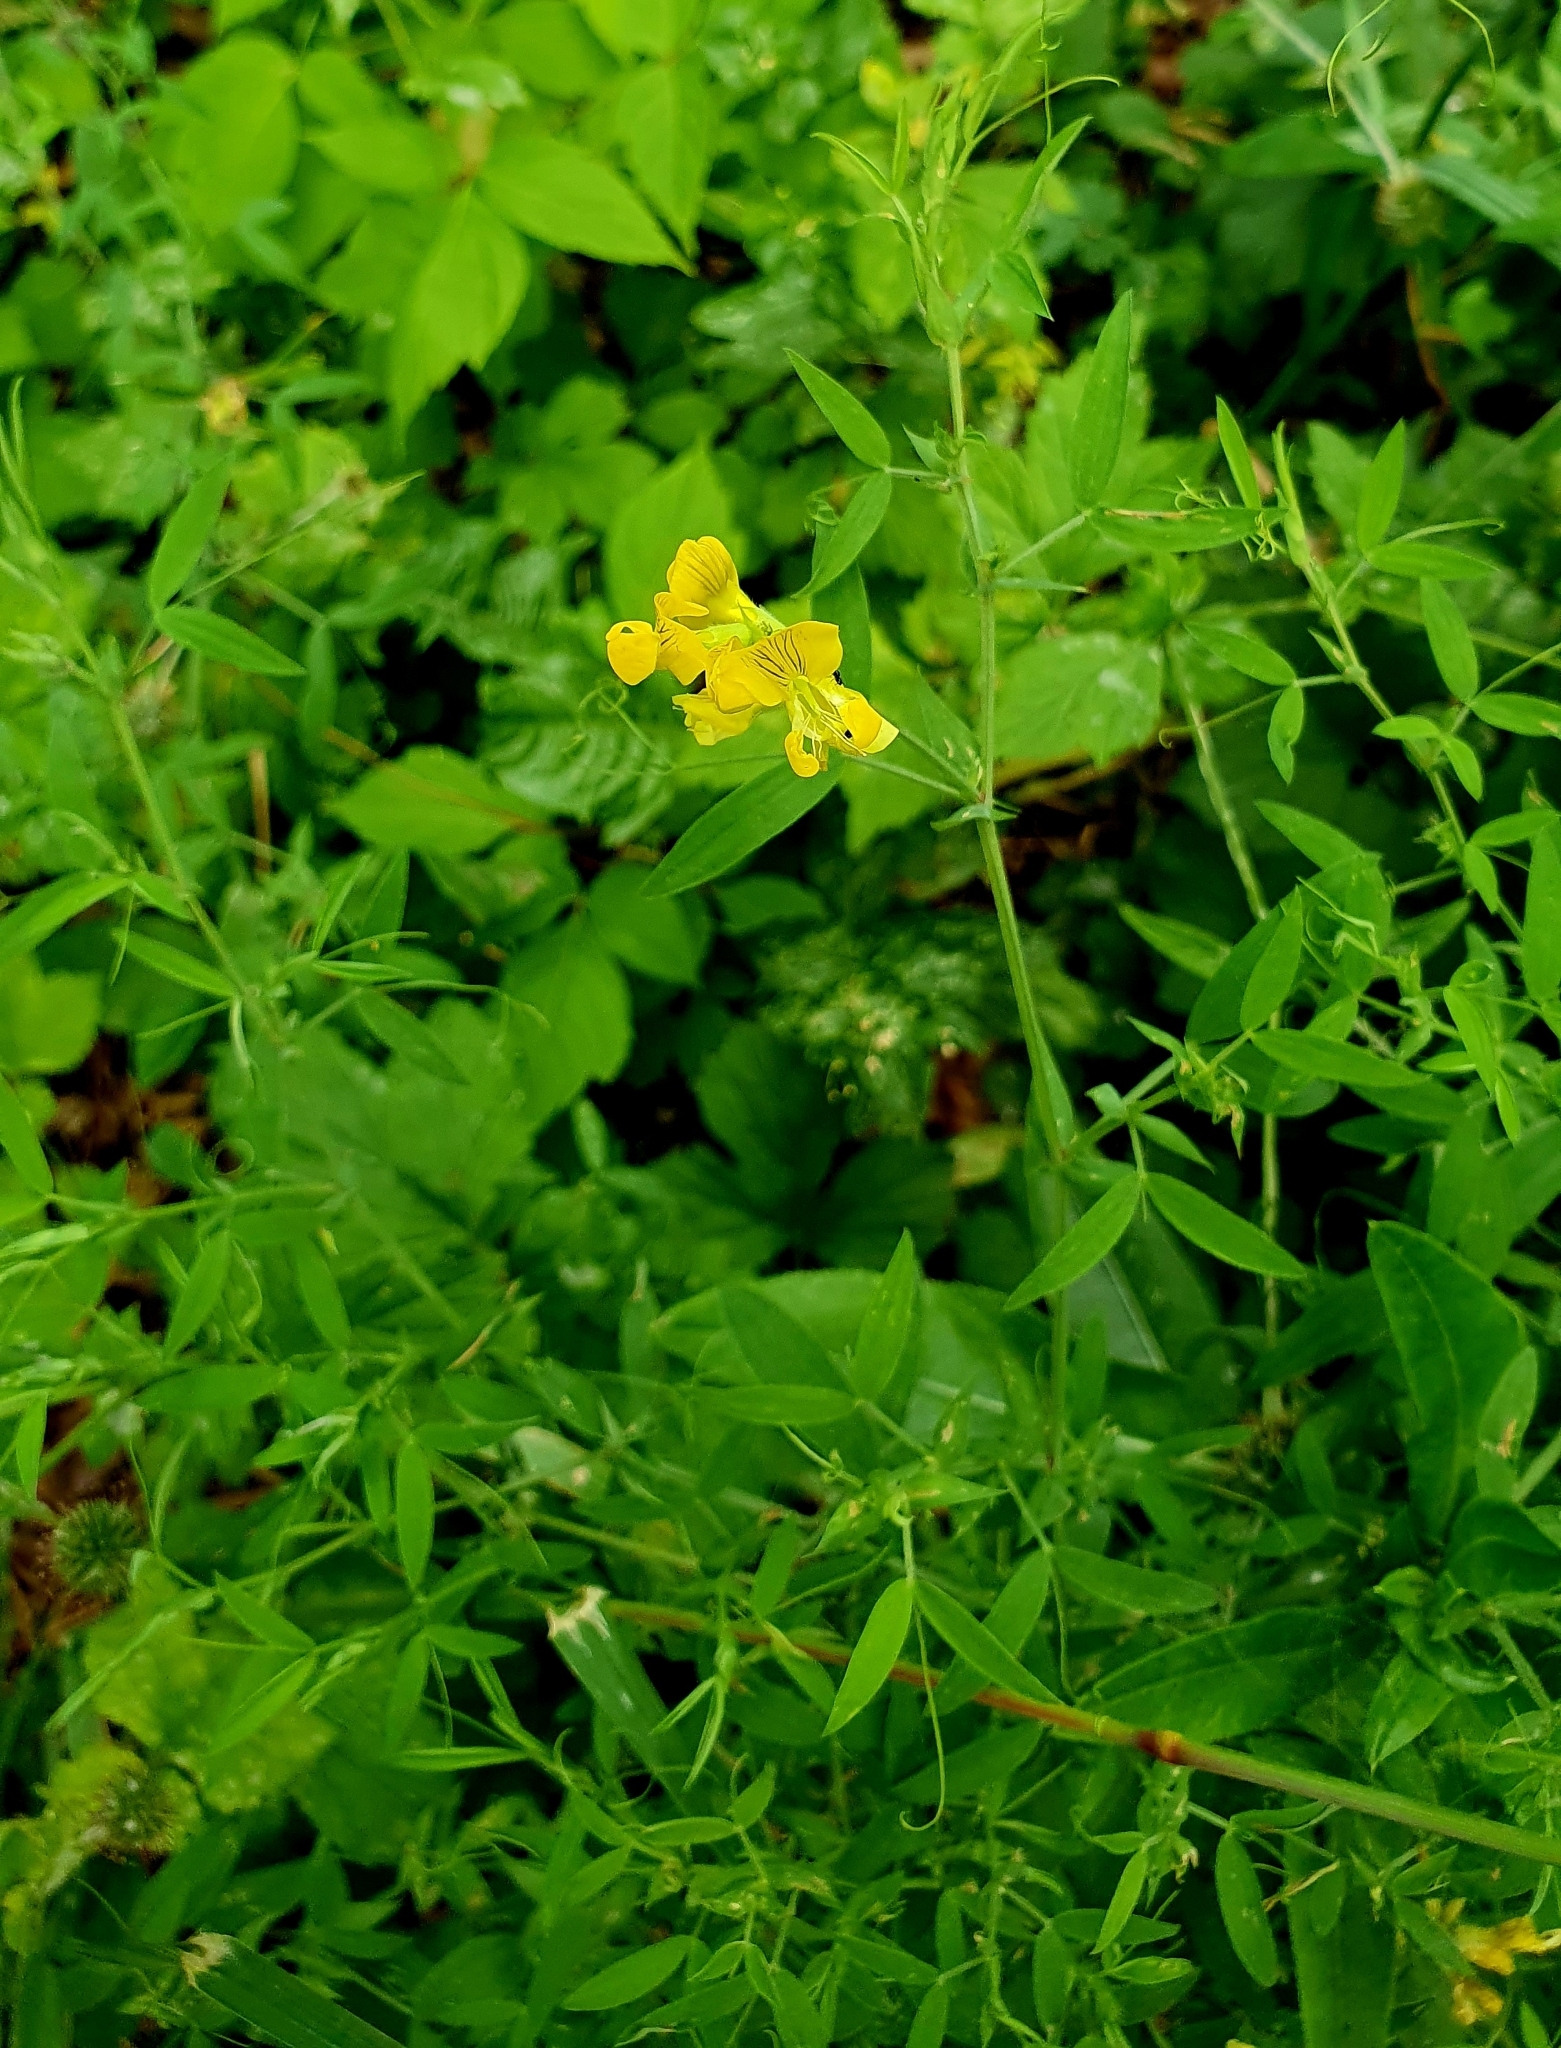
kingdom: Plantae
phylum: Tracheophyta
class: Magnoliopsida
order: Fabales
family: Fabaceae
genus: Lathyrus
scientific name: Lathyrus pratensis
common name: Meadow vetchling
